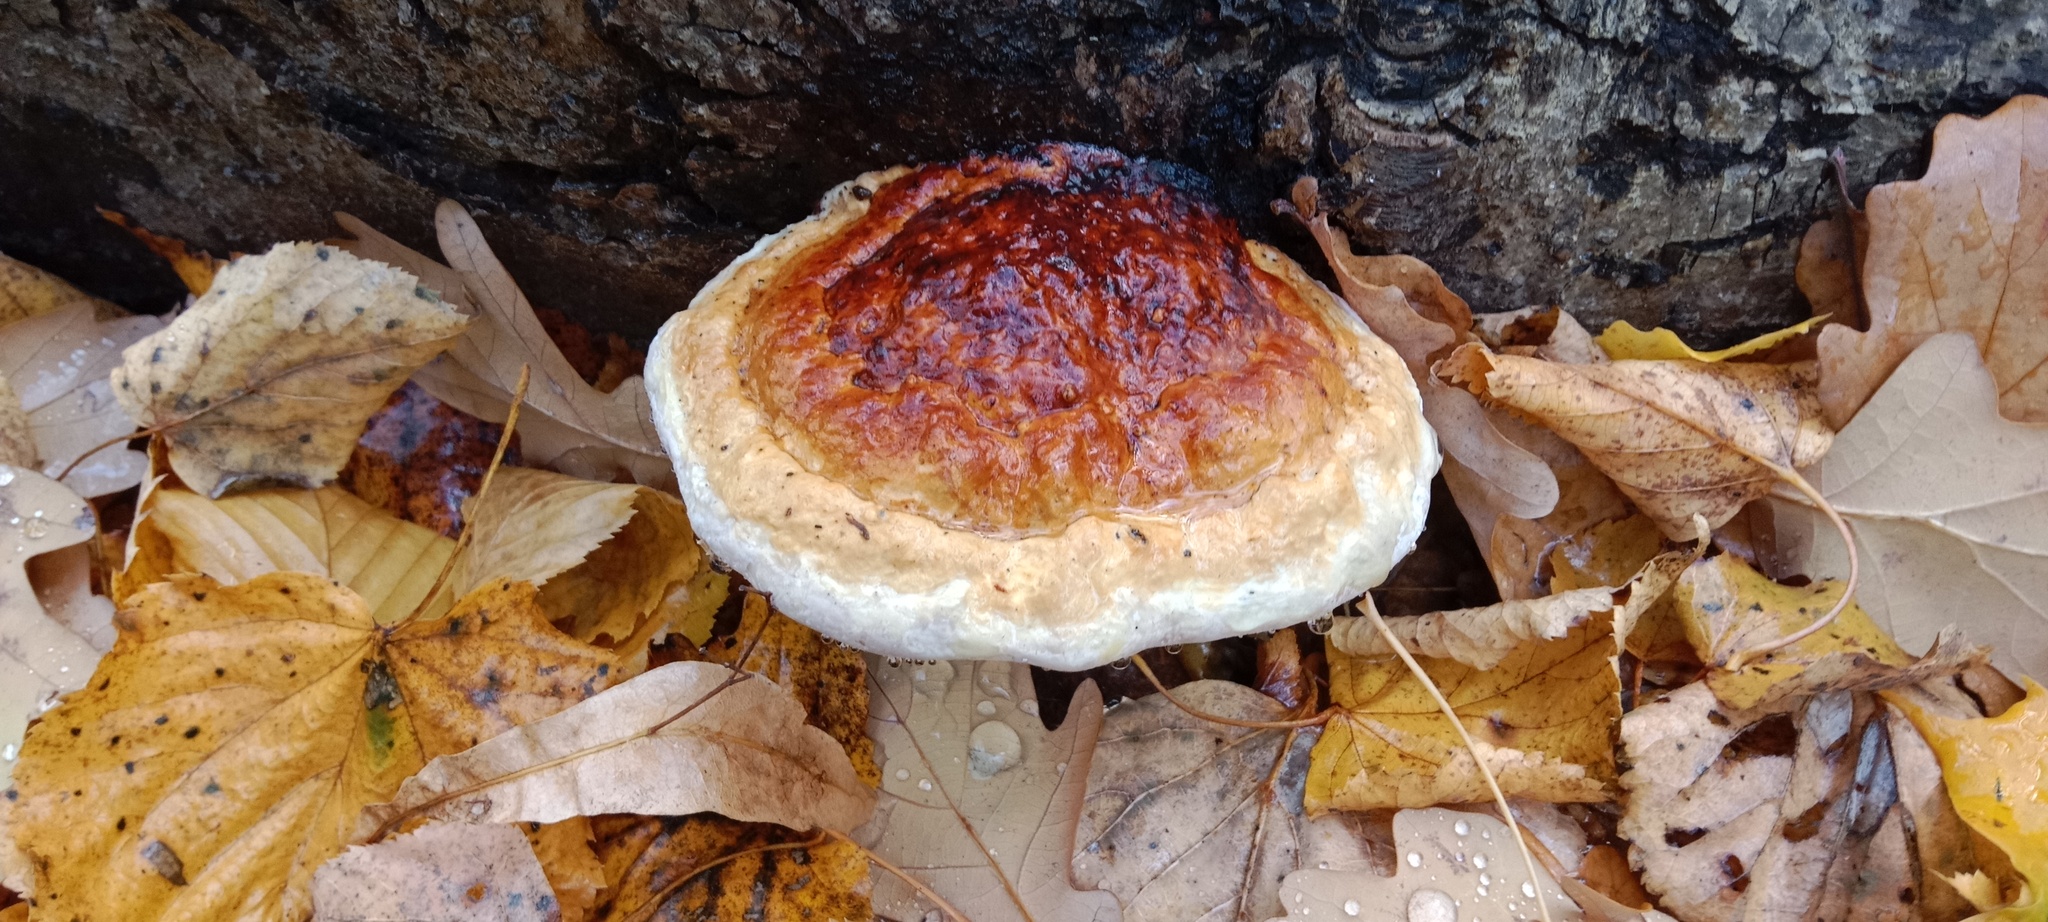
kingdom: Fungi
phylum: Basidiomycota
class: Agaricomycetes
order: Polyporales
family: Fomitopsidaceae
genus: Fomitopsis
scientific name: Fomitopsis pinicola
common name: Red-belted bracket
